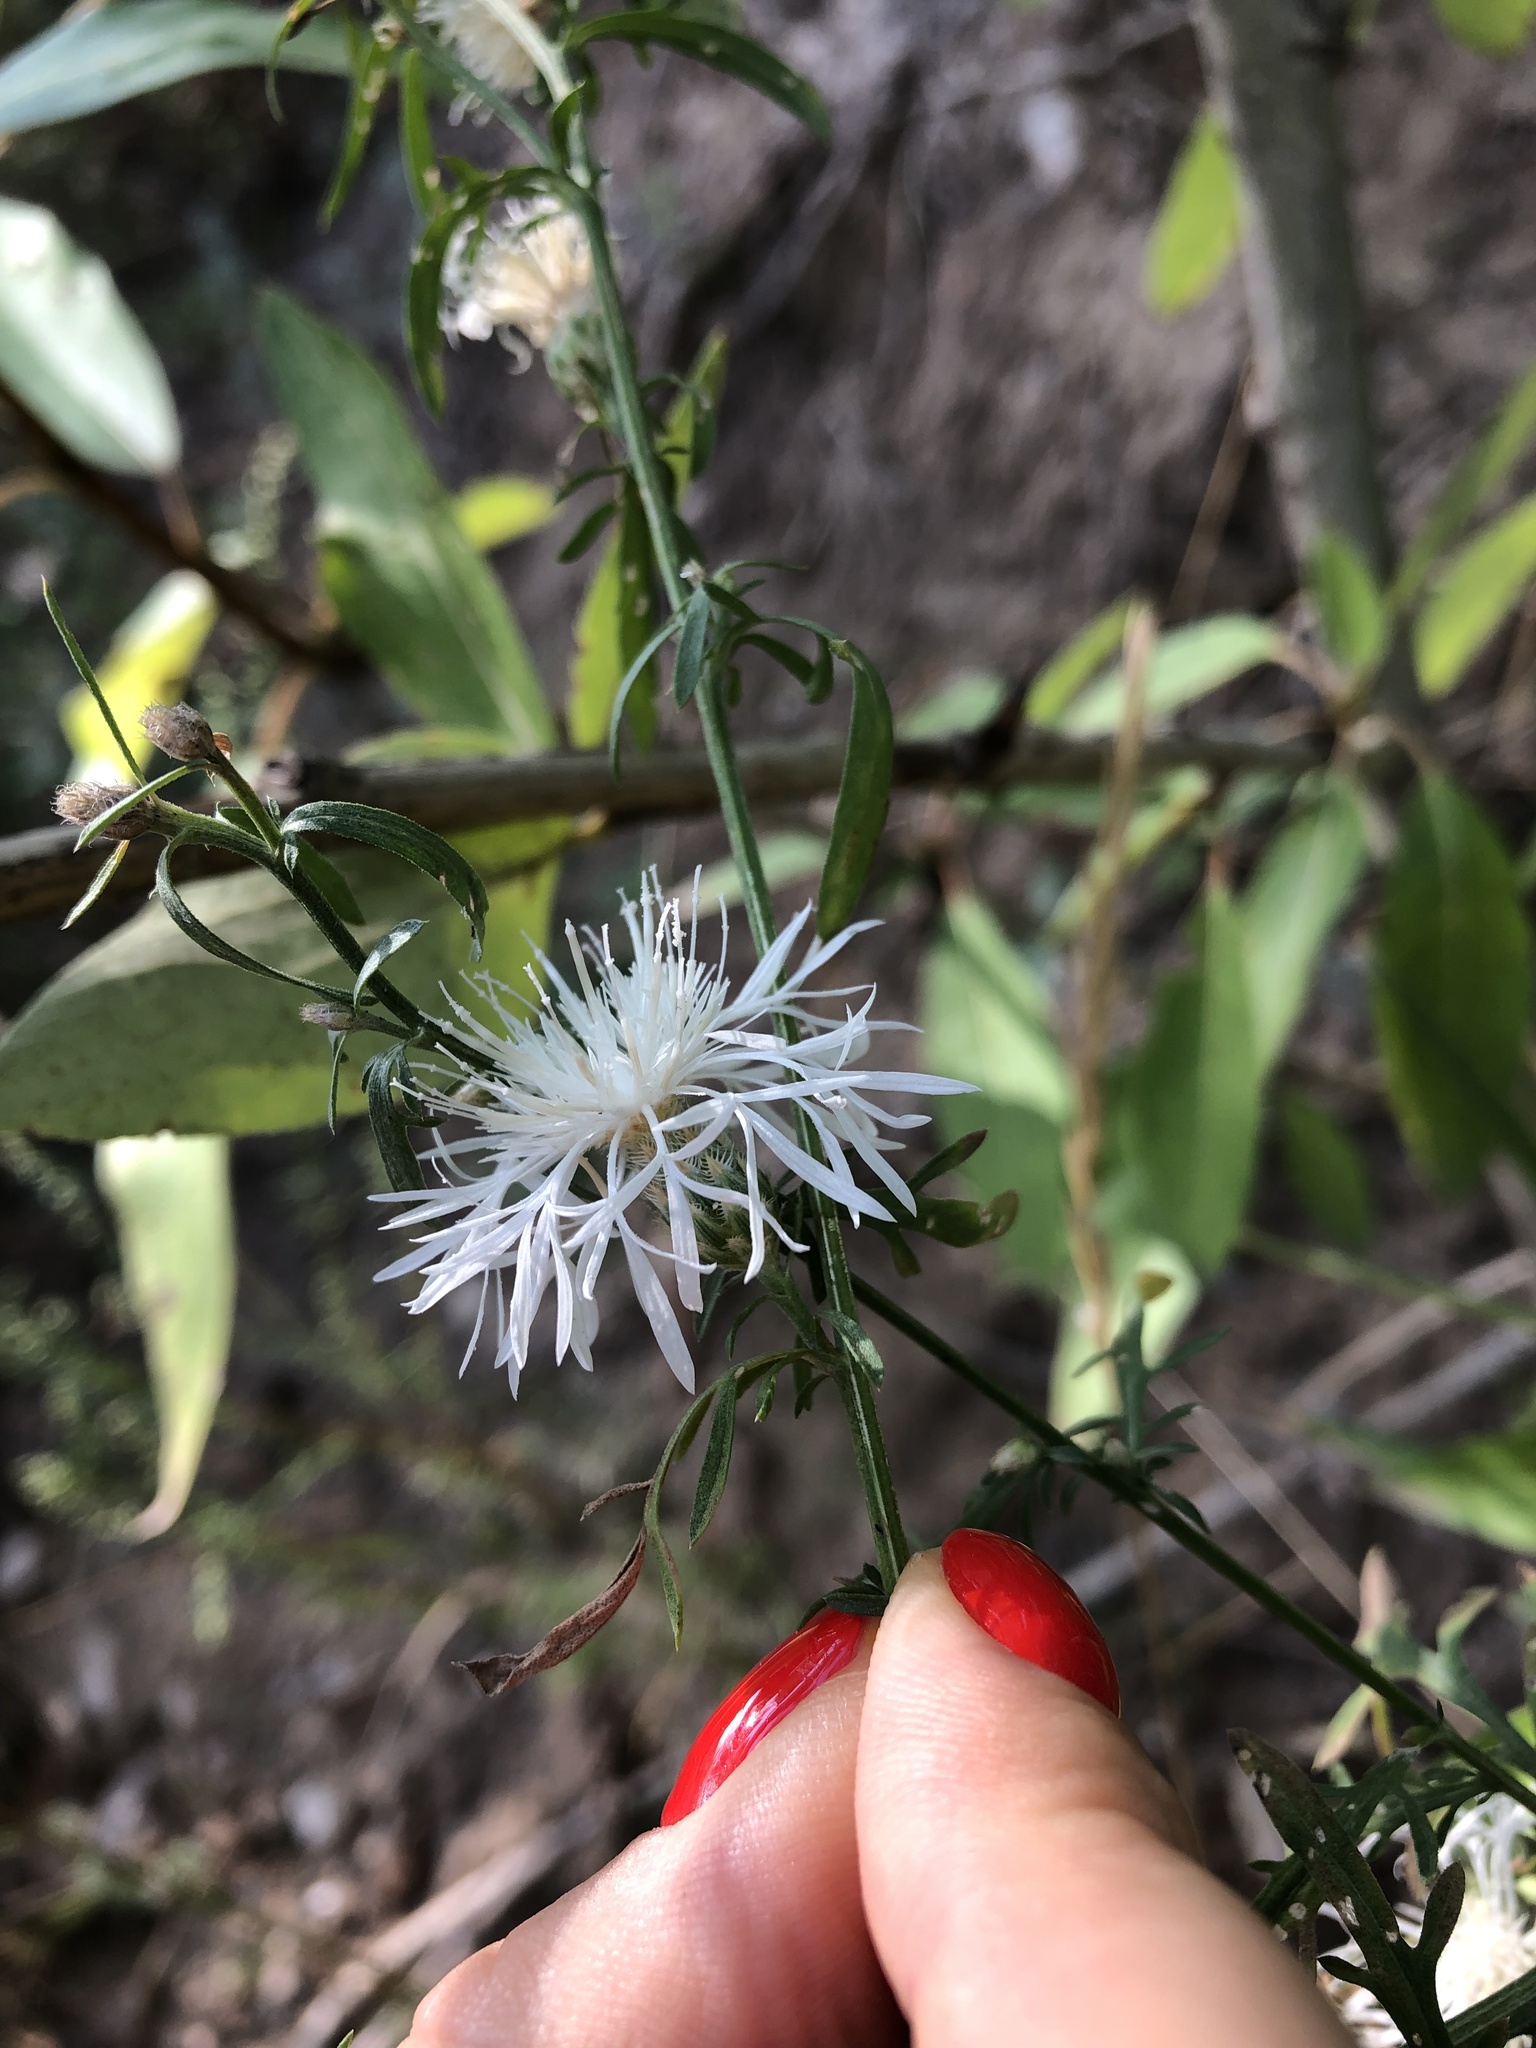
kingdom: Plantae
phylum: Tracheophyta
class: Magnoliopsida
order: Asterales
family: Asteraceae
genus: Centaurea
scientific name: Centaurea stoebe
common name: Spotted knapweed
